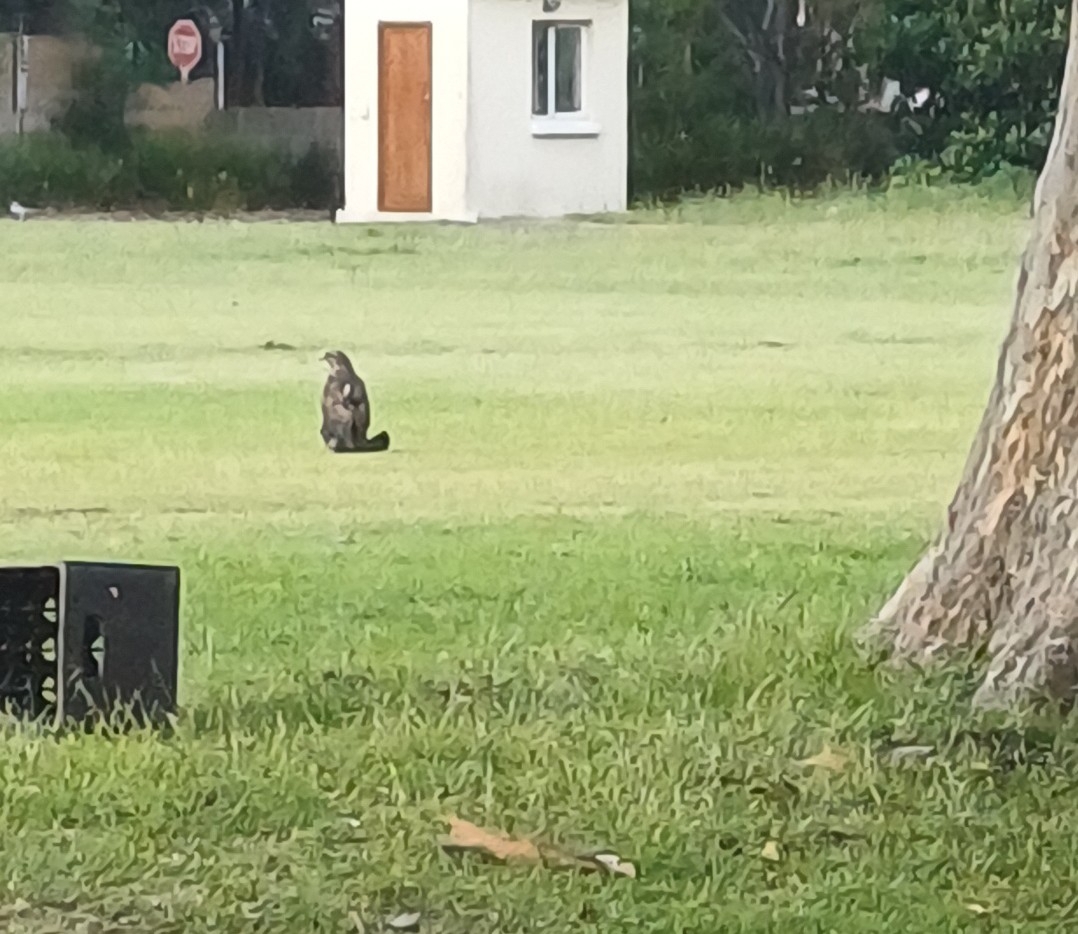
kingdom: Animalia
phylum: Chordata
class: Aves
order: Accipitriformes
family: Accipitridae
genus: Accipiter
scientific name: Accipiter melanoleucus
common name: Black sparrowhawk
